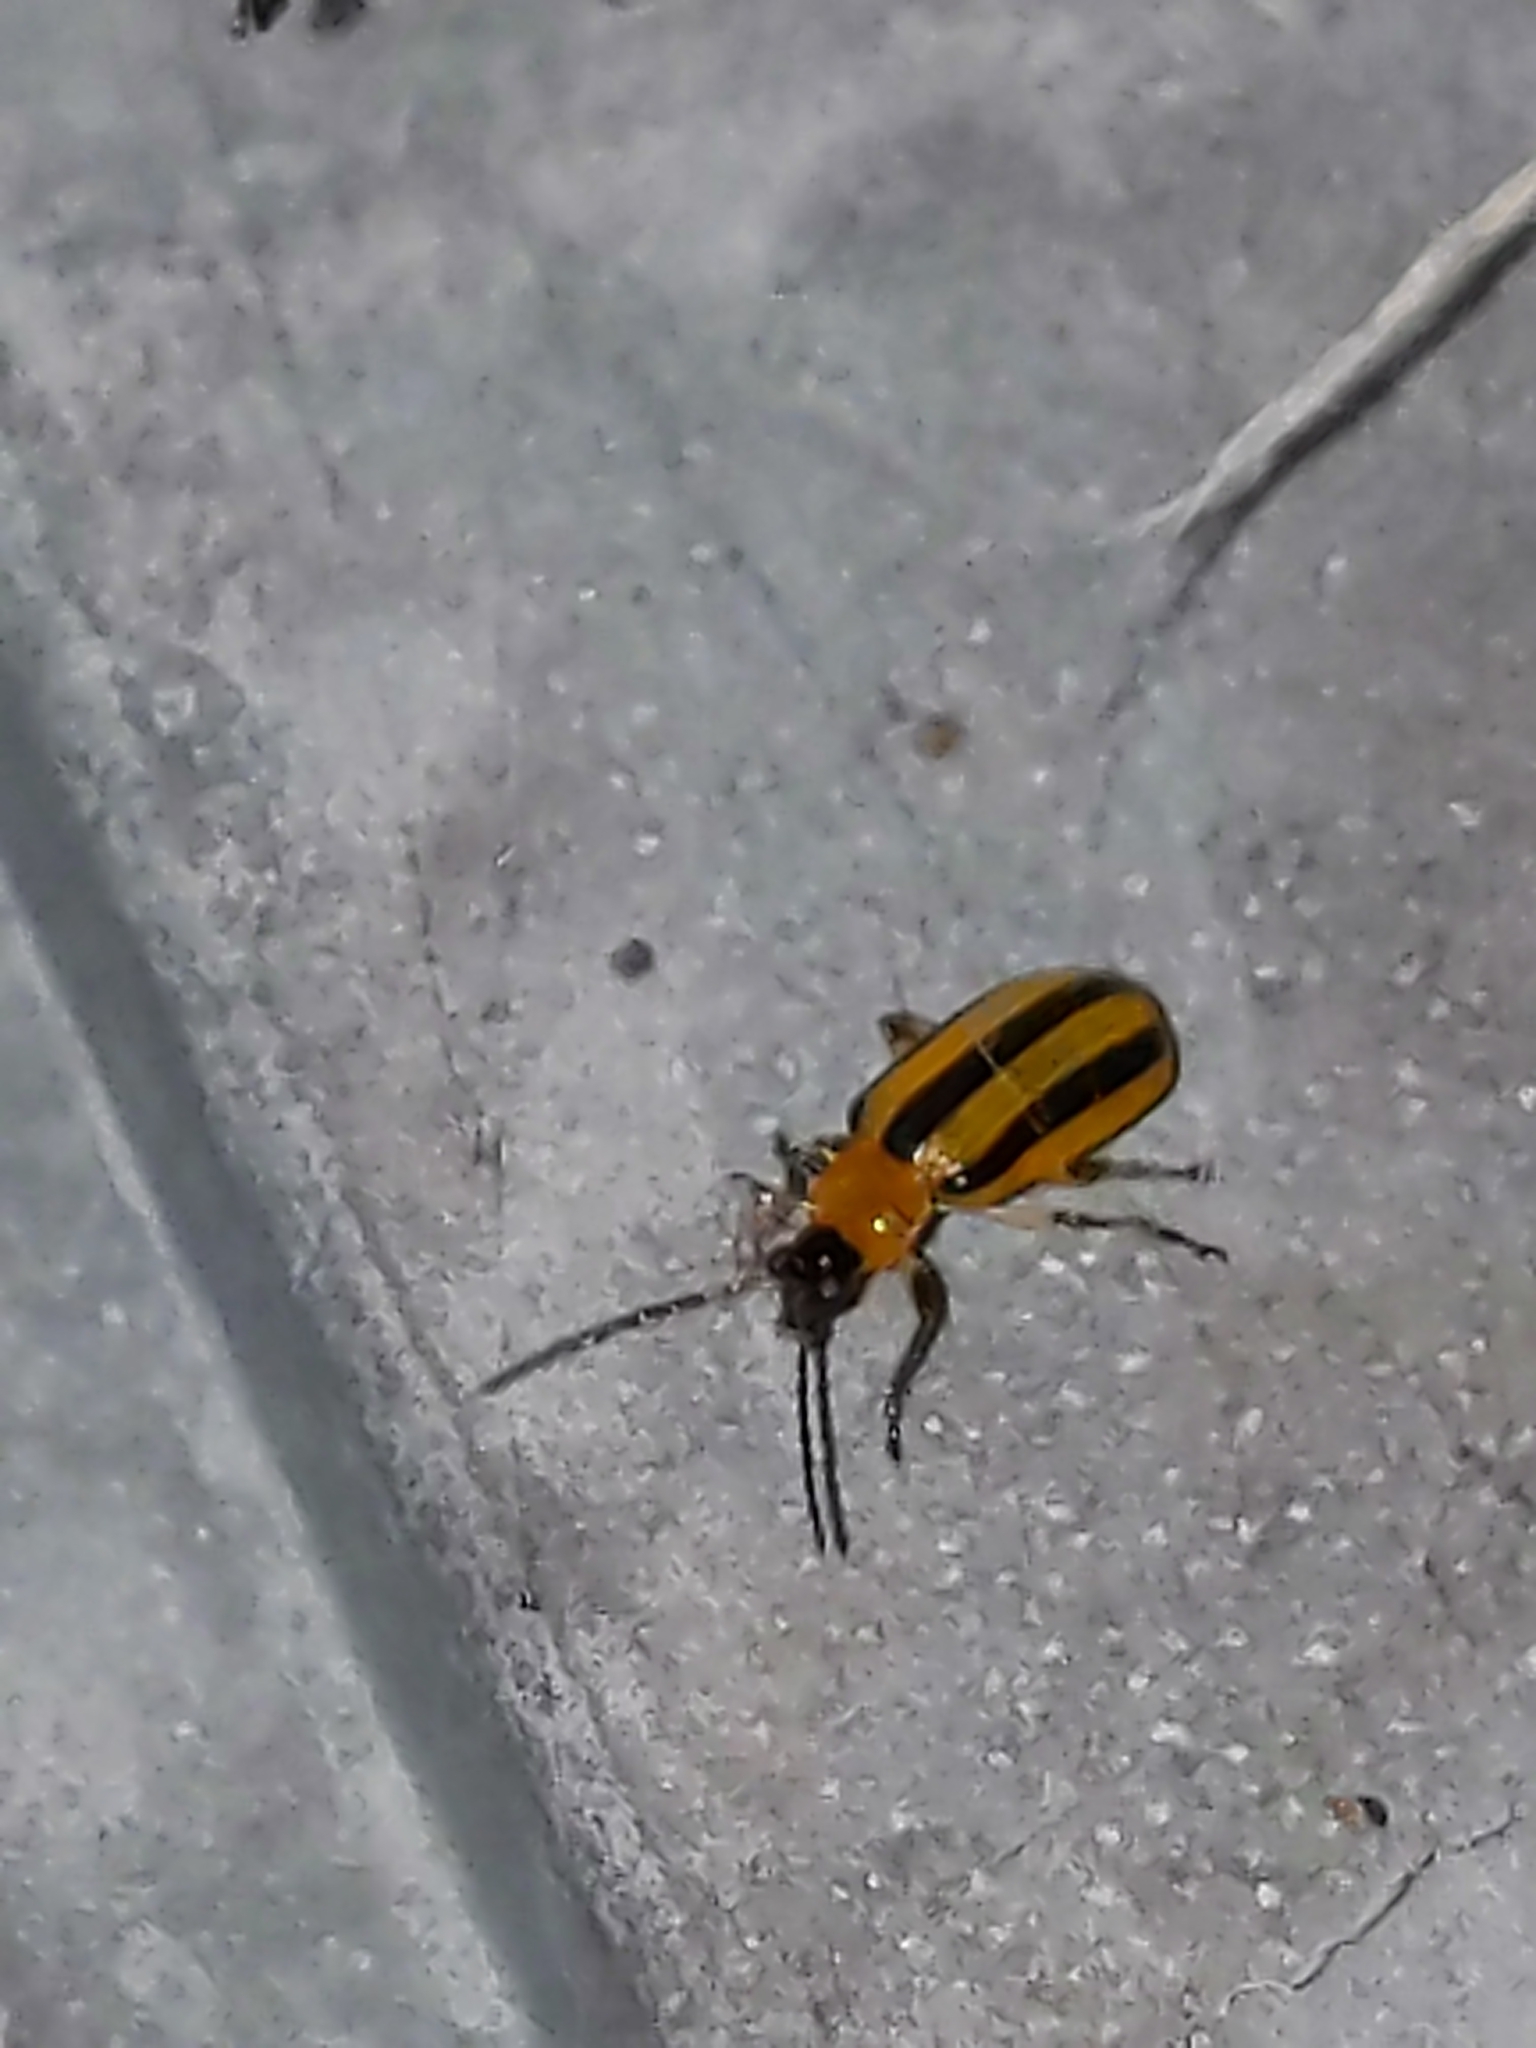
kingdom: Animalia
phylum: Arthropoda
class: Insecta
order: Coleoptera
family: Chrysomelidae
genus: Acalymma
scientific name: Acalymma vittatum
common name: Striped cucumber beetle
